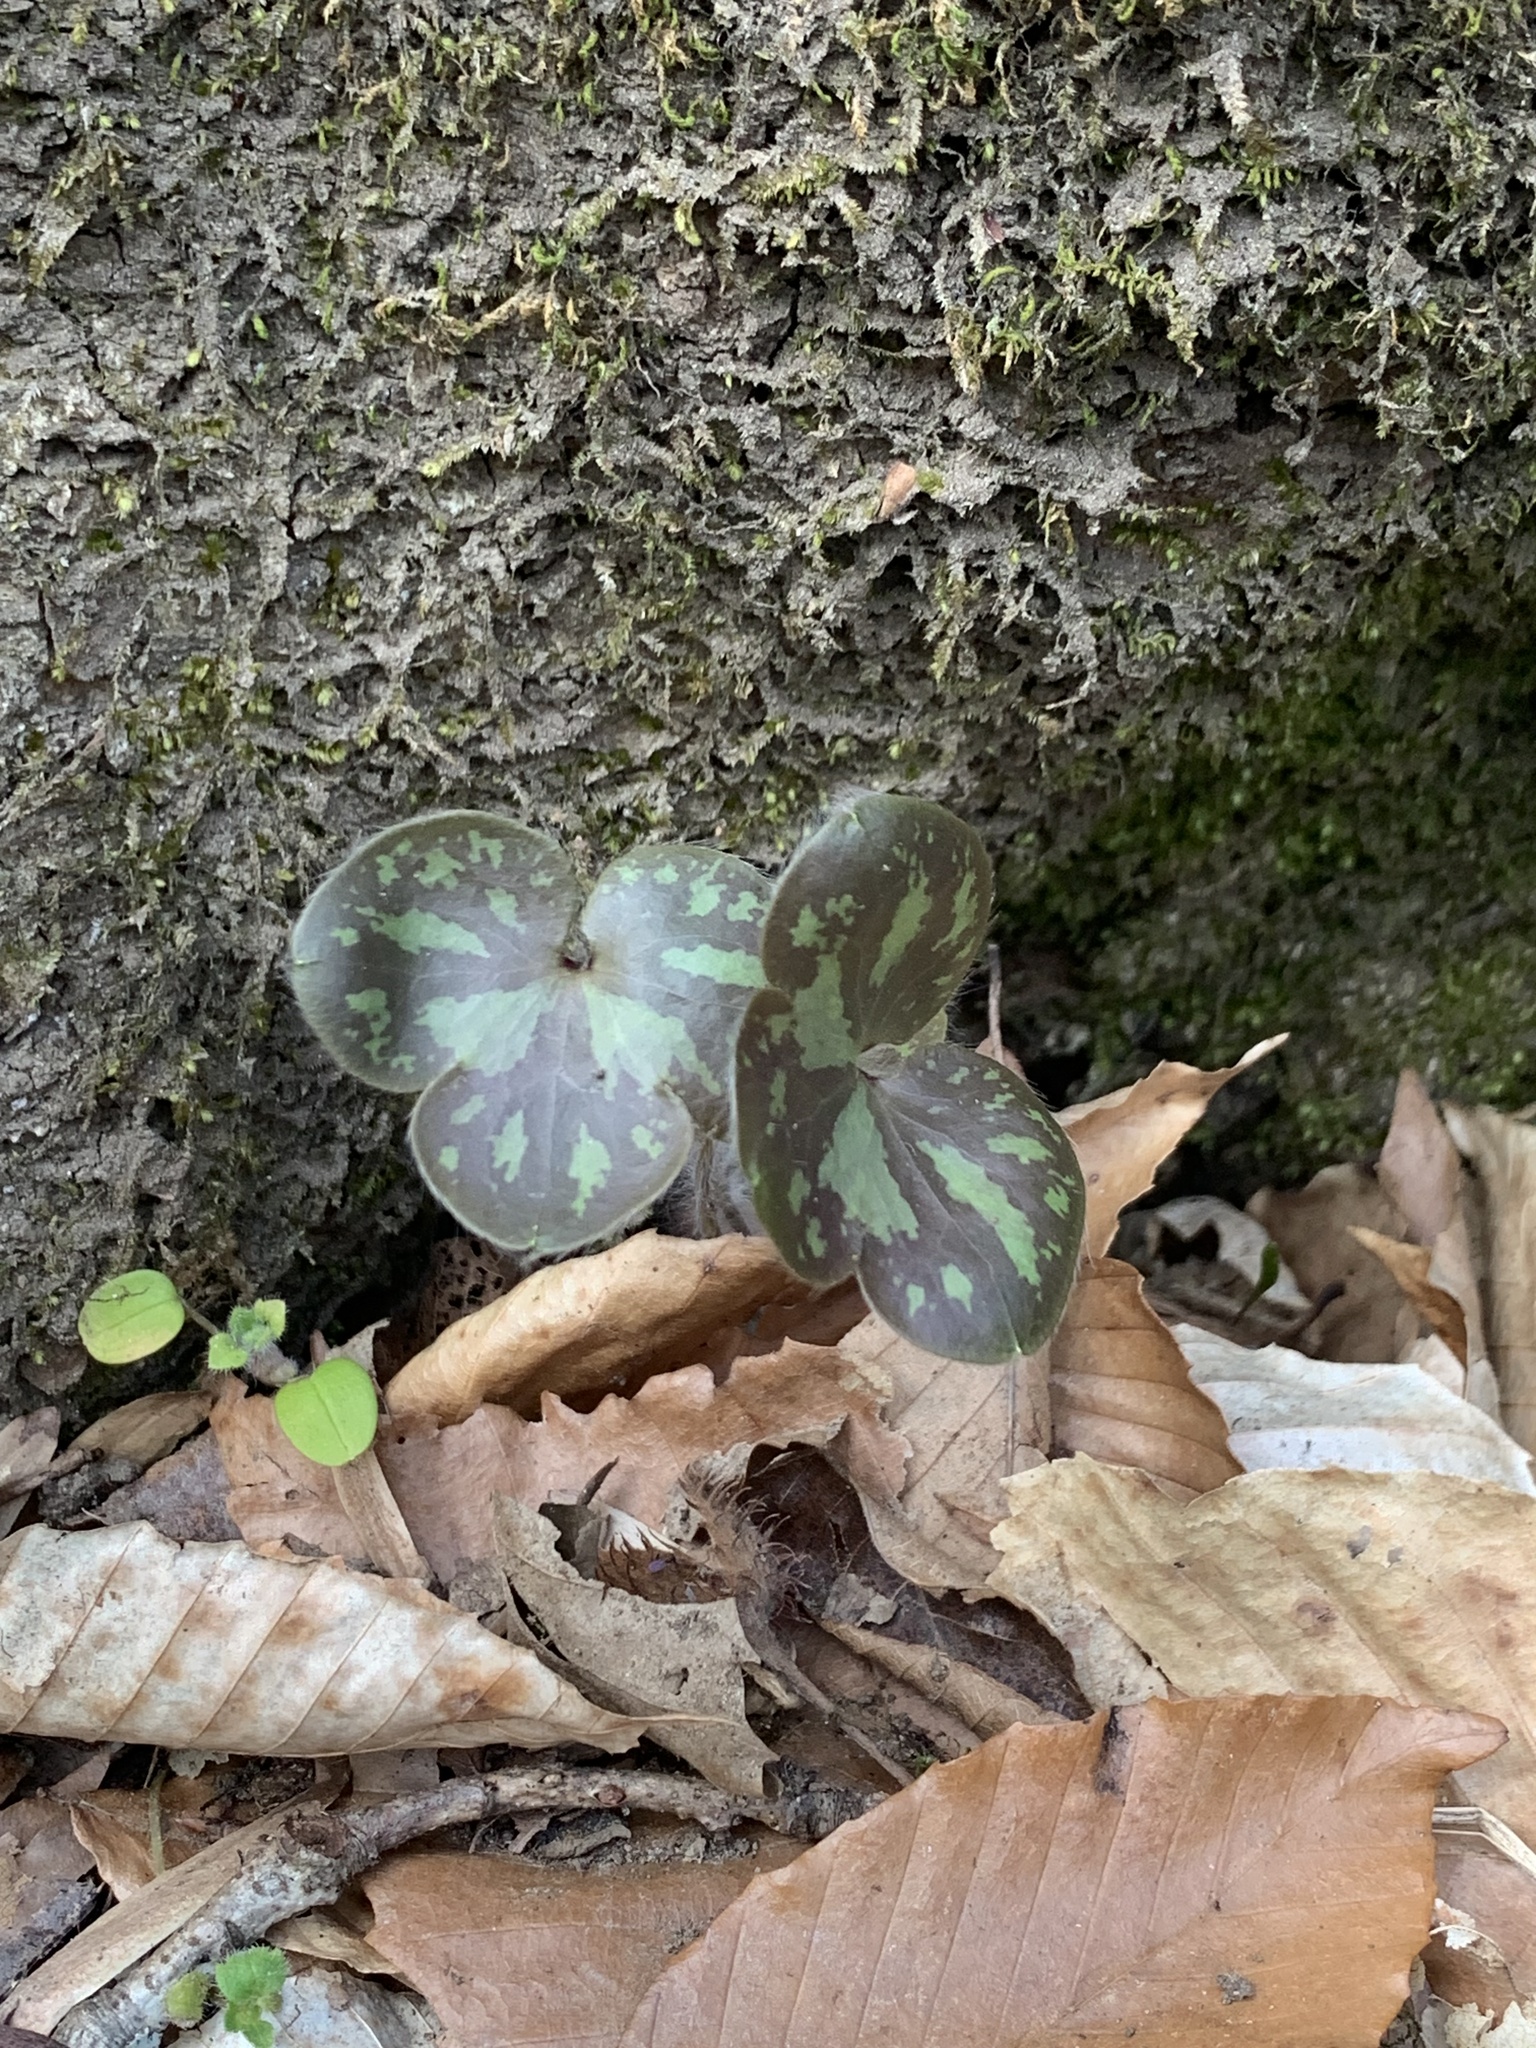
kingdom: Plantae
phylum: Tracheophyta
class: Magnoliopsida
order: Ranunculales
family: Ranunculaceae
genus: Hepatica
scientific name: Hepatica americana
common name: American hepatica
